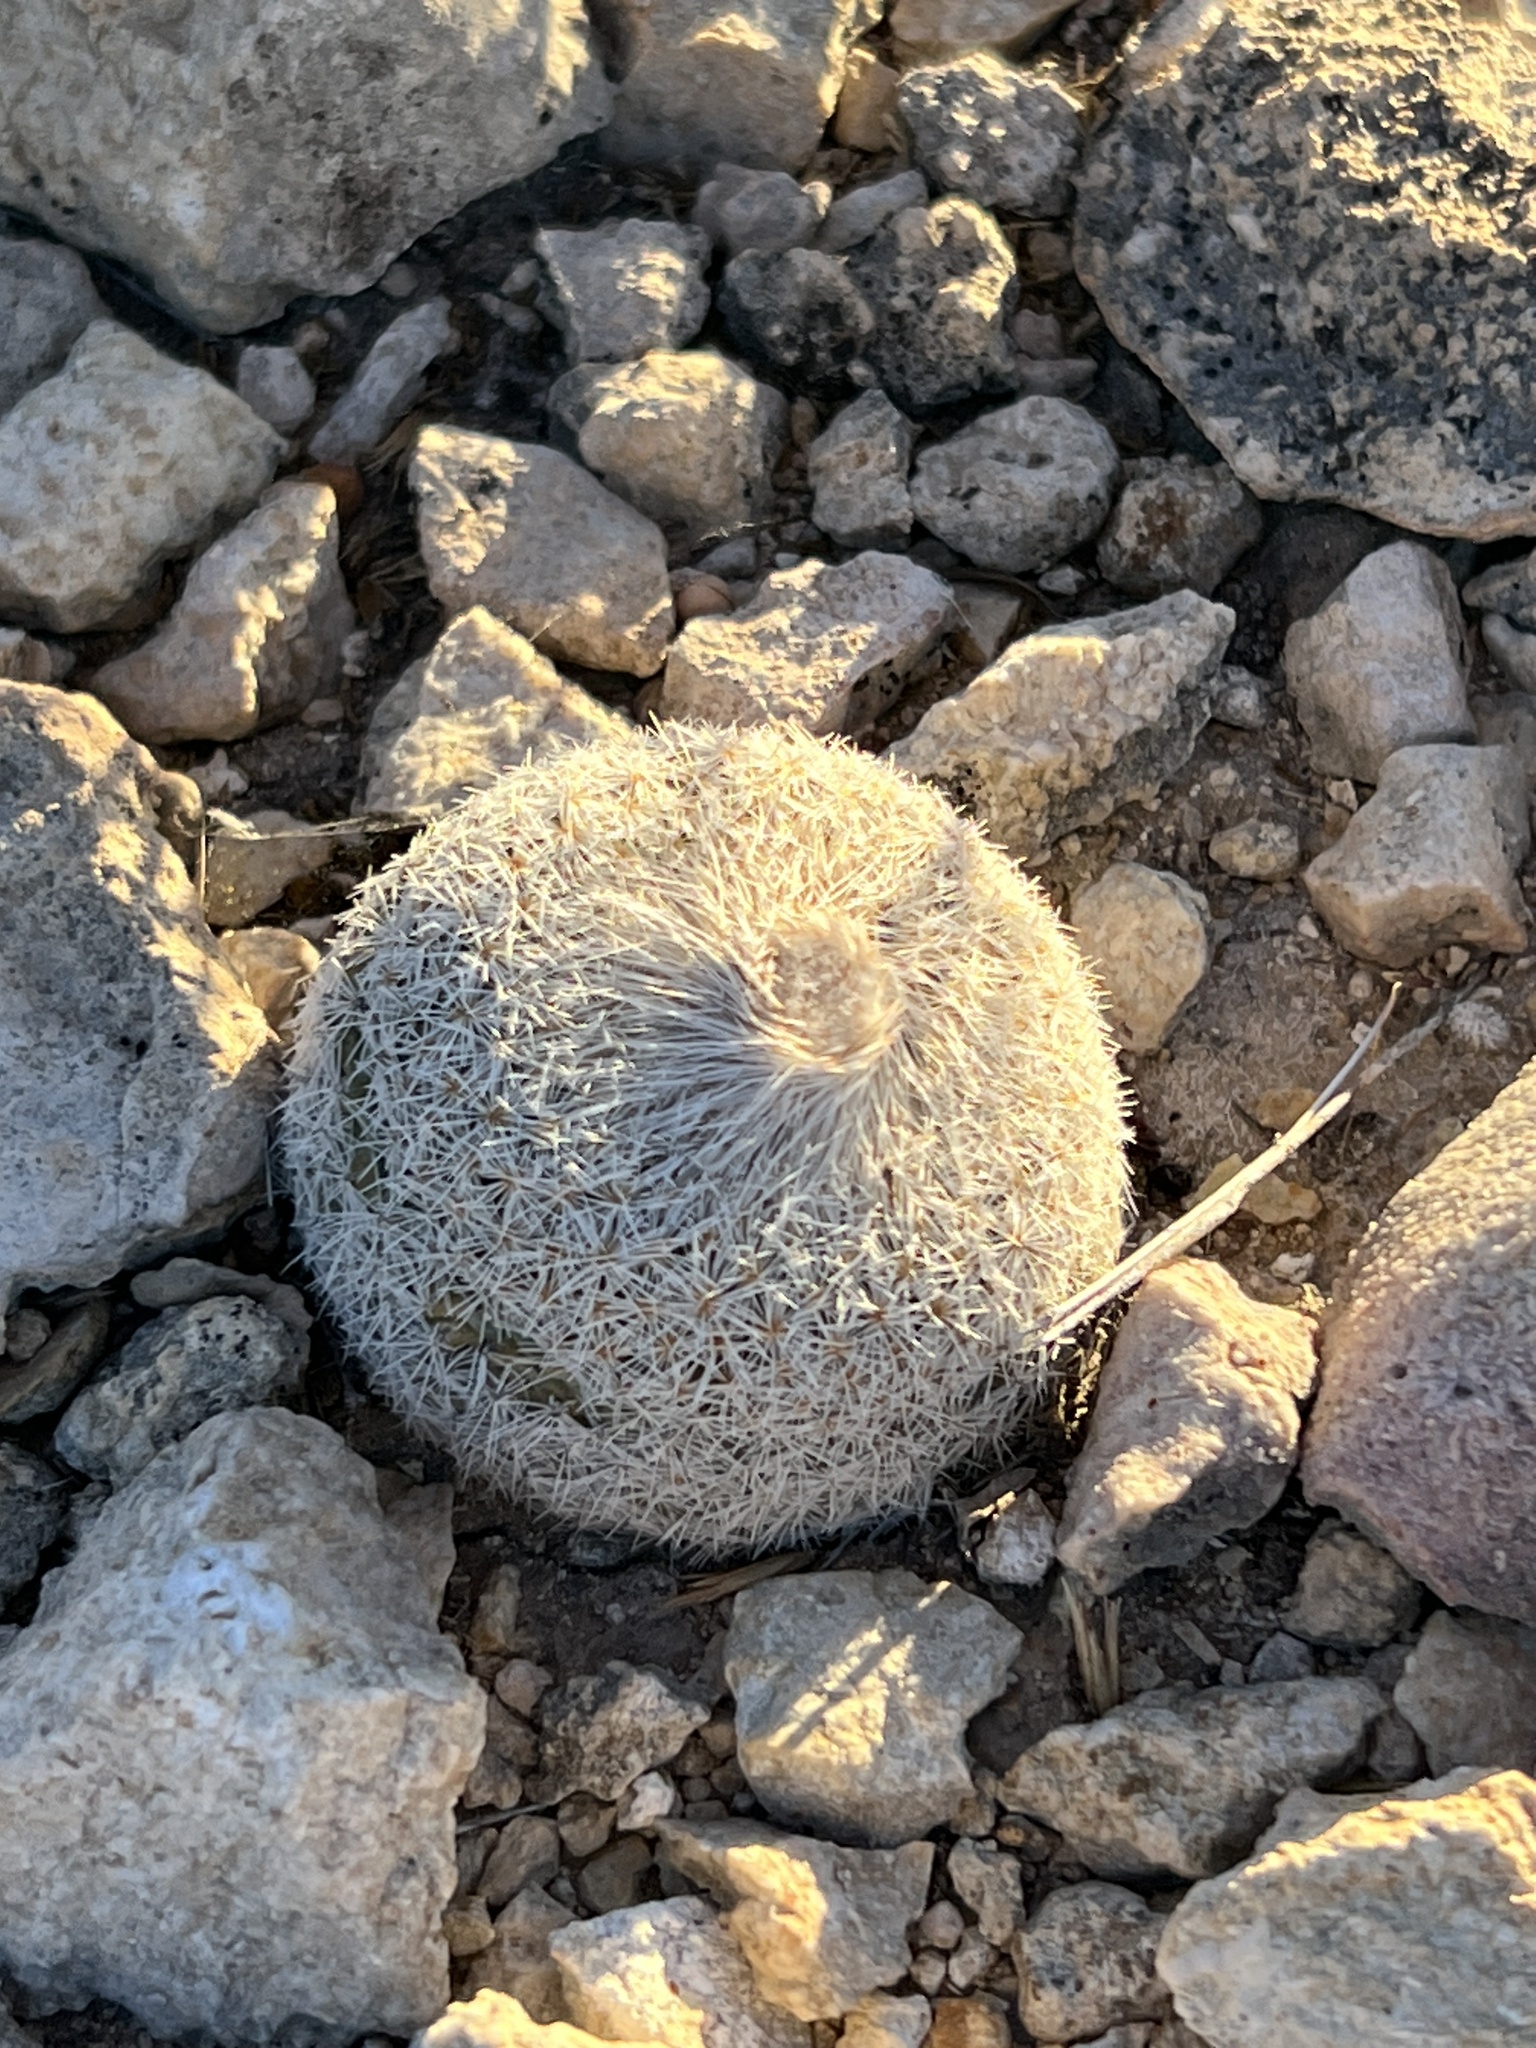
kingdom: Plantae
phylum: Tracheophyta
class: Magnoliopsida
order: Caryophyllales
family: Cactaceae
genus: Epithelantha
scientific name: Epithelantha micromeris
